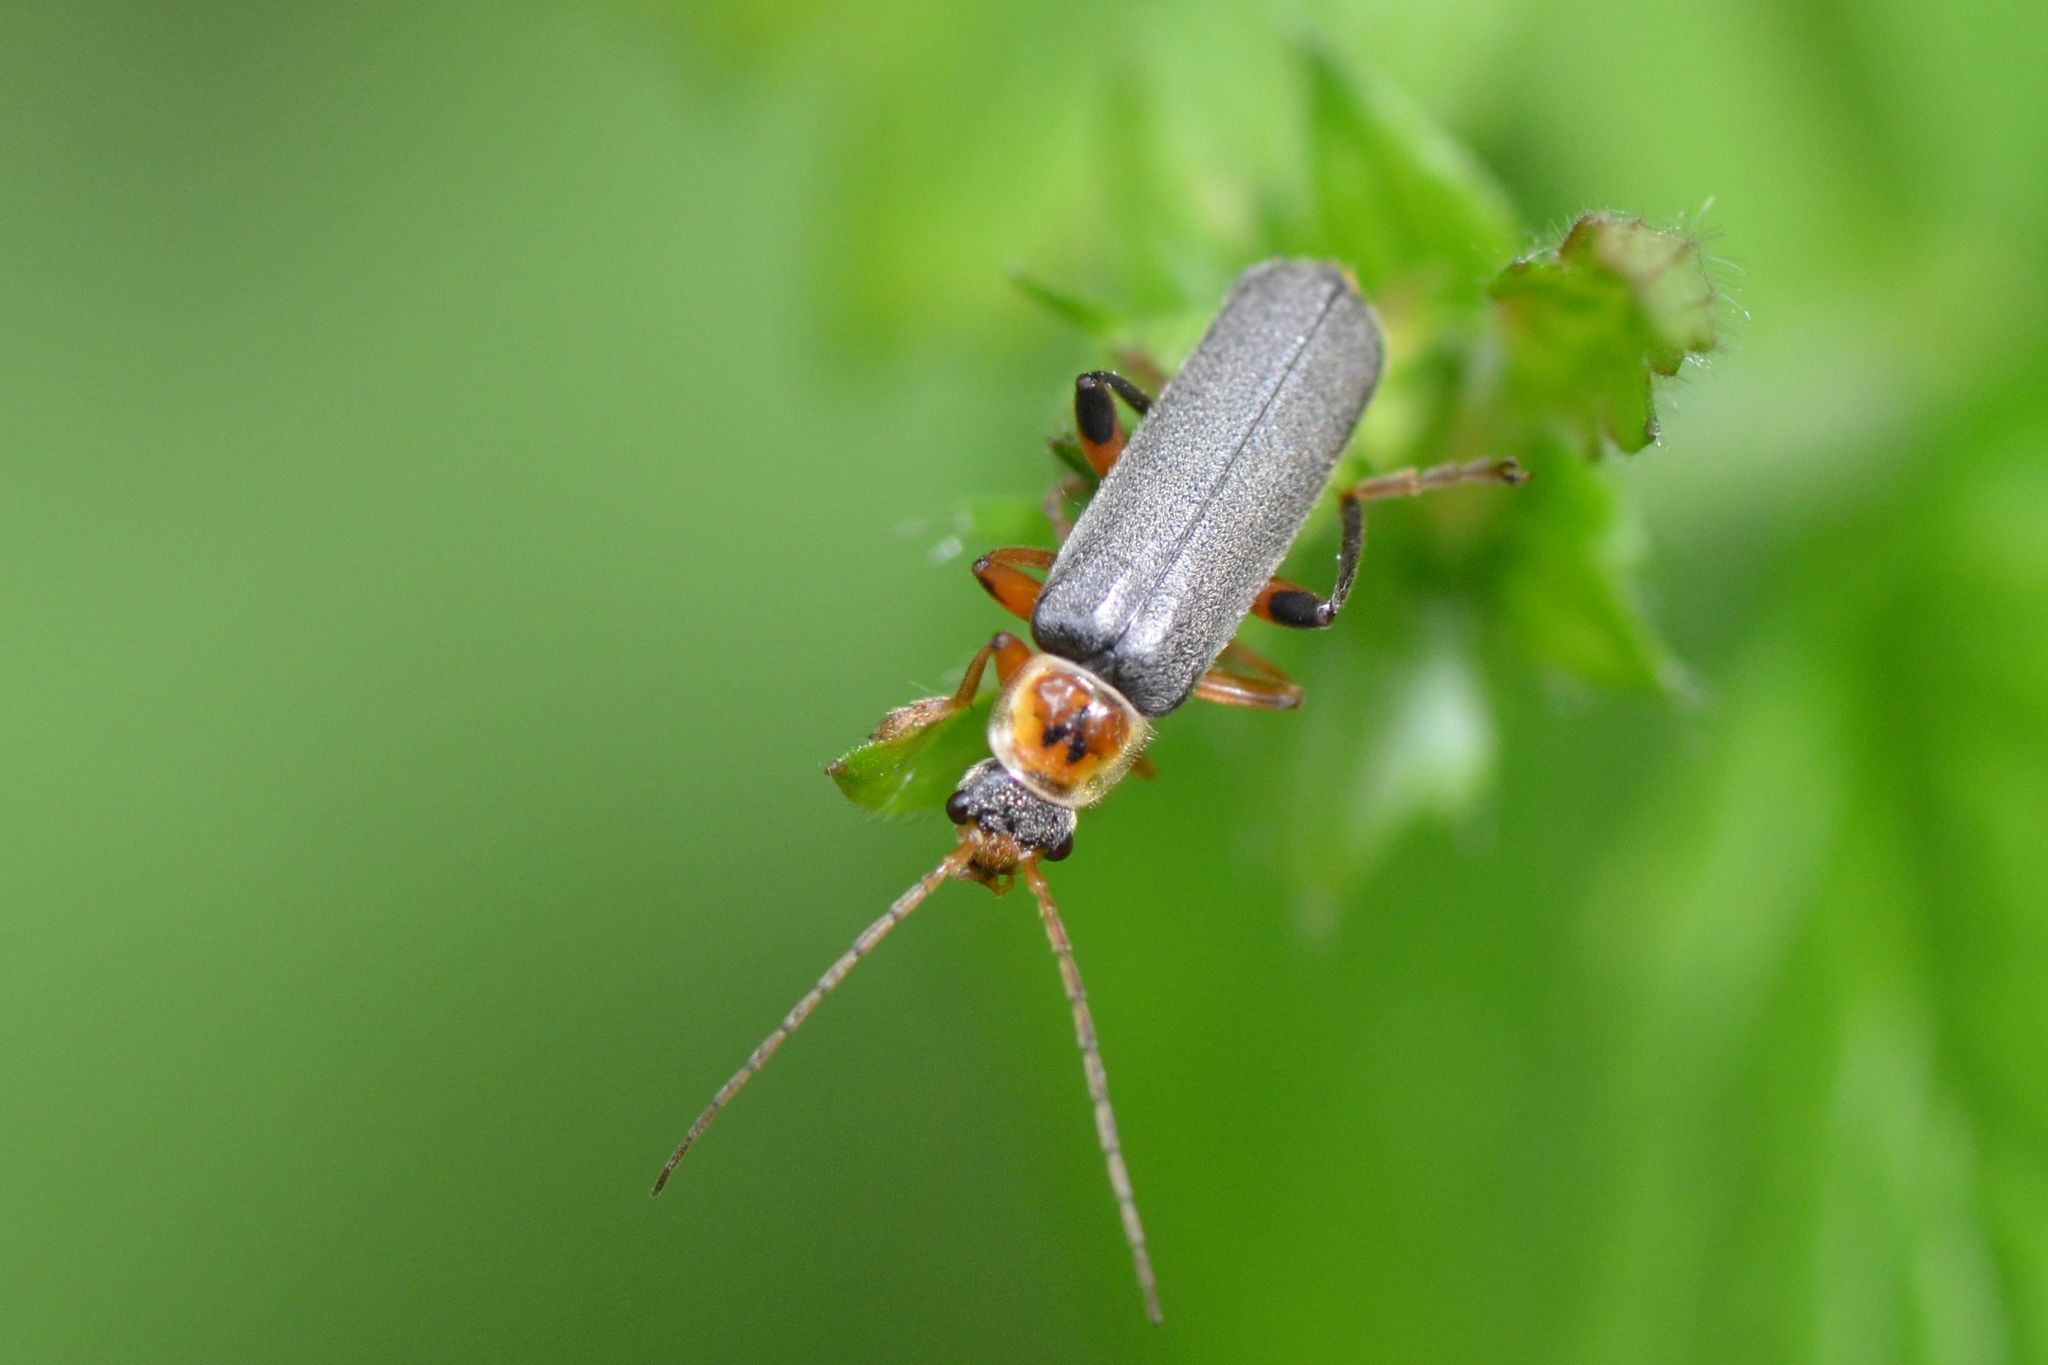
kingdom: Animalia
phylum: Arthropoda
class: Insecta
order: Coleoptera
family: Cantharidae
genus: Cantharis
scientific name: Cantharis nigricans
